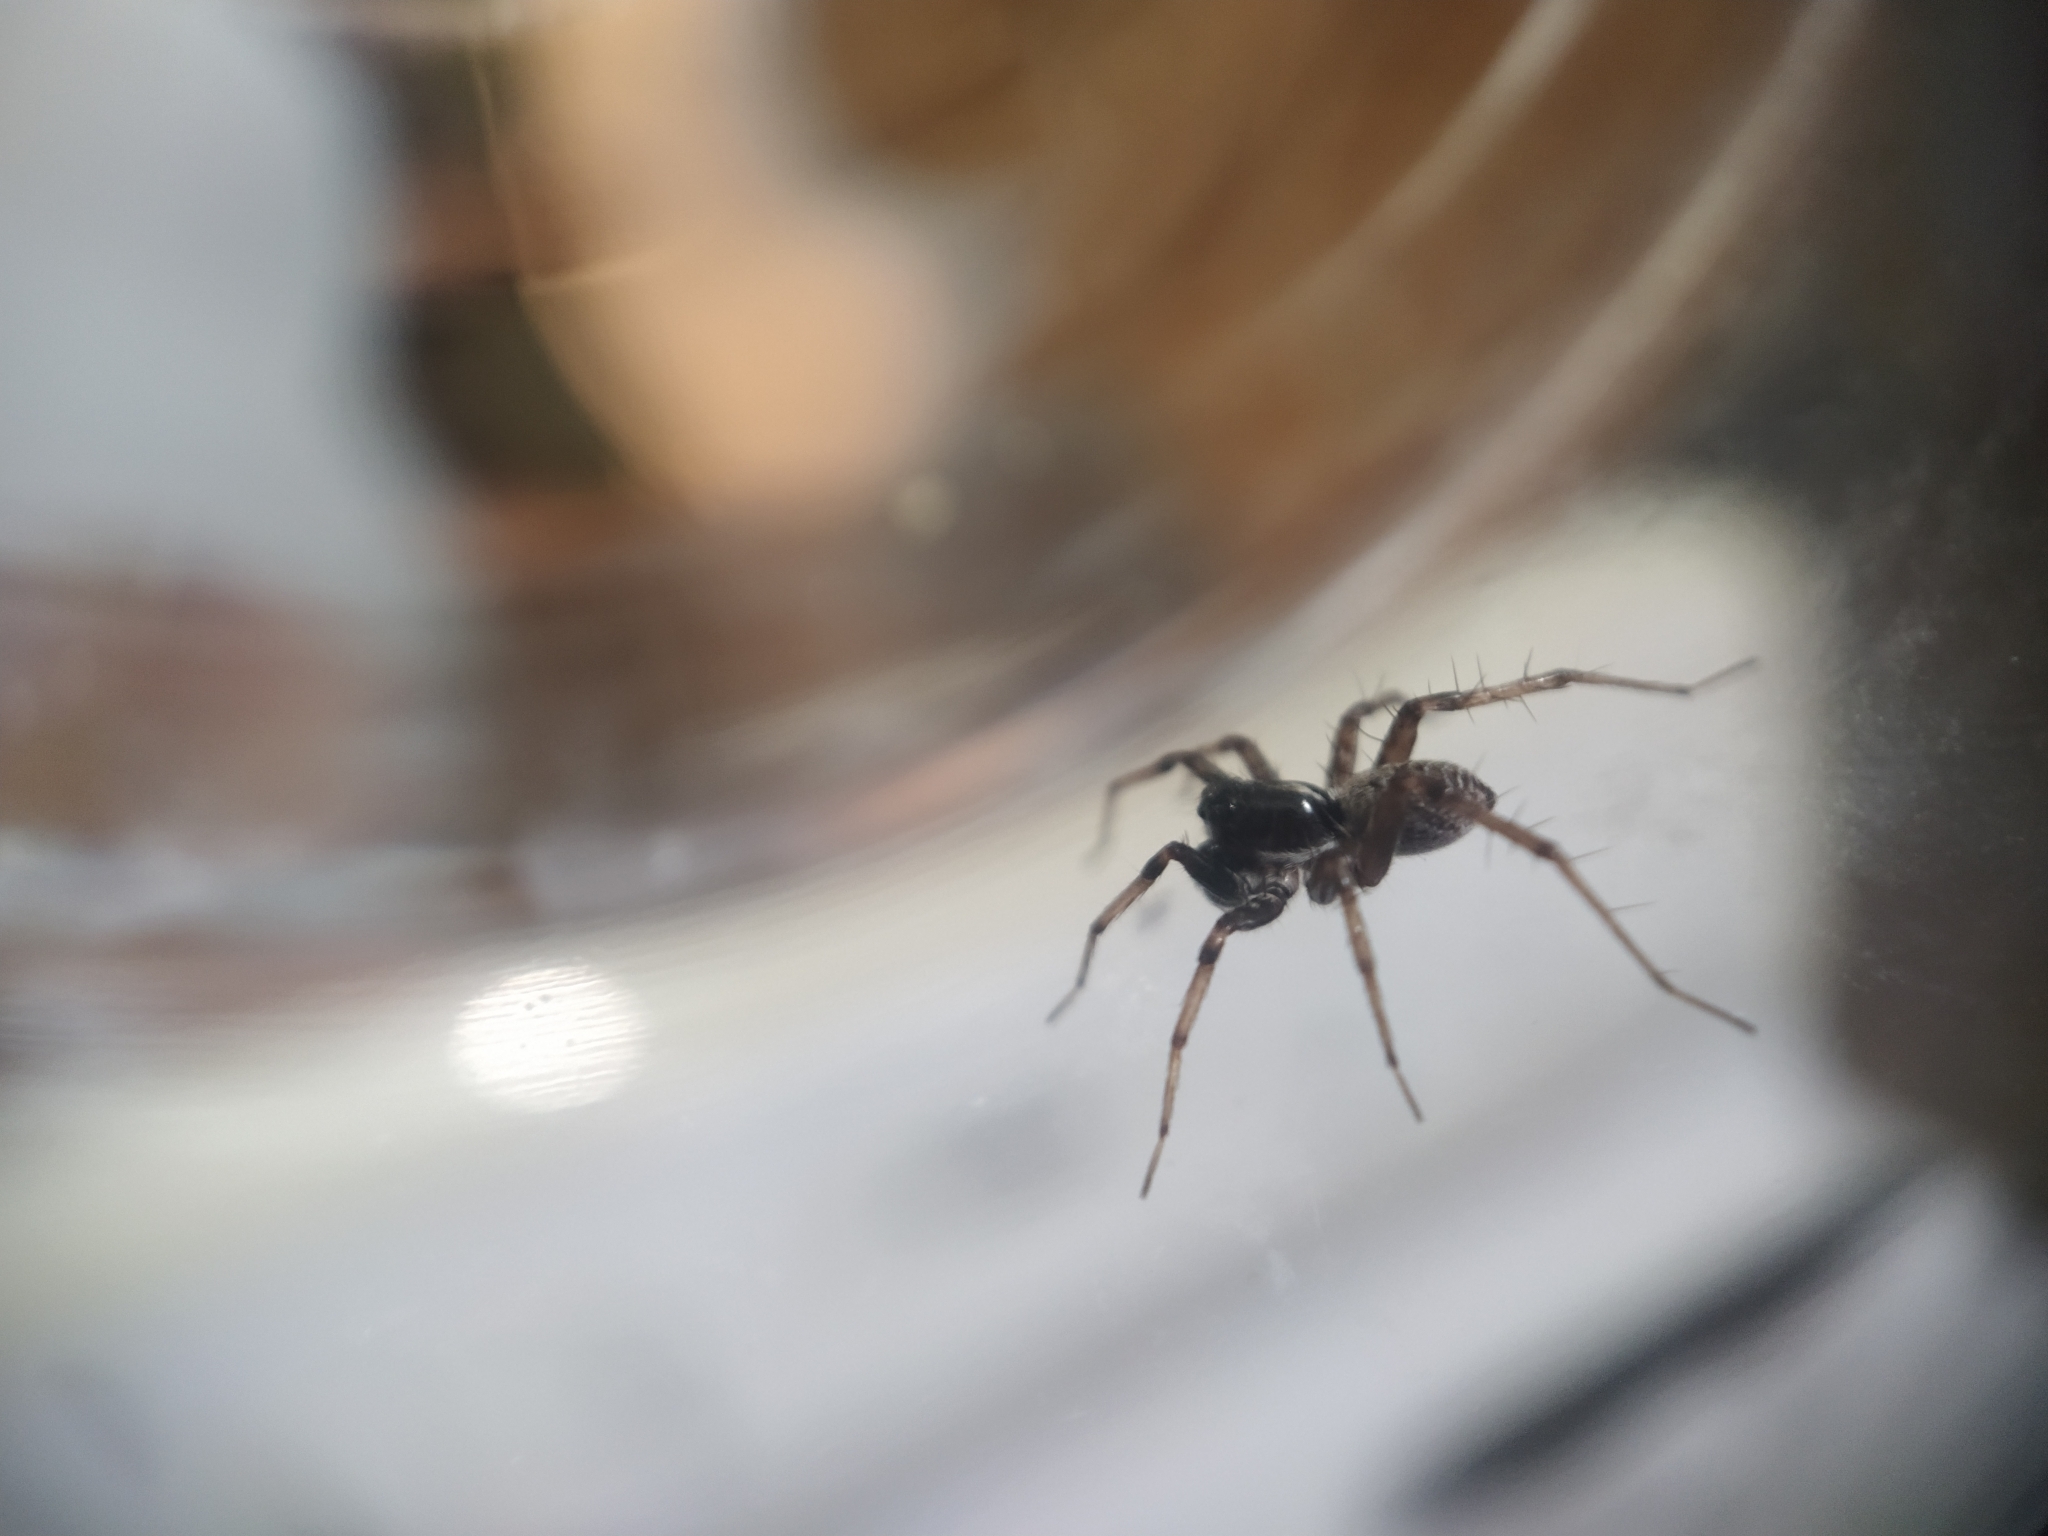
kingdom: Animalia
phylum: Arthropoda
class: Arachnida
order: Araneae
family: Lycosidae
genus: Pardosa
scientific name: Pardosa moesta
